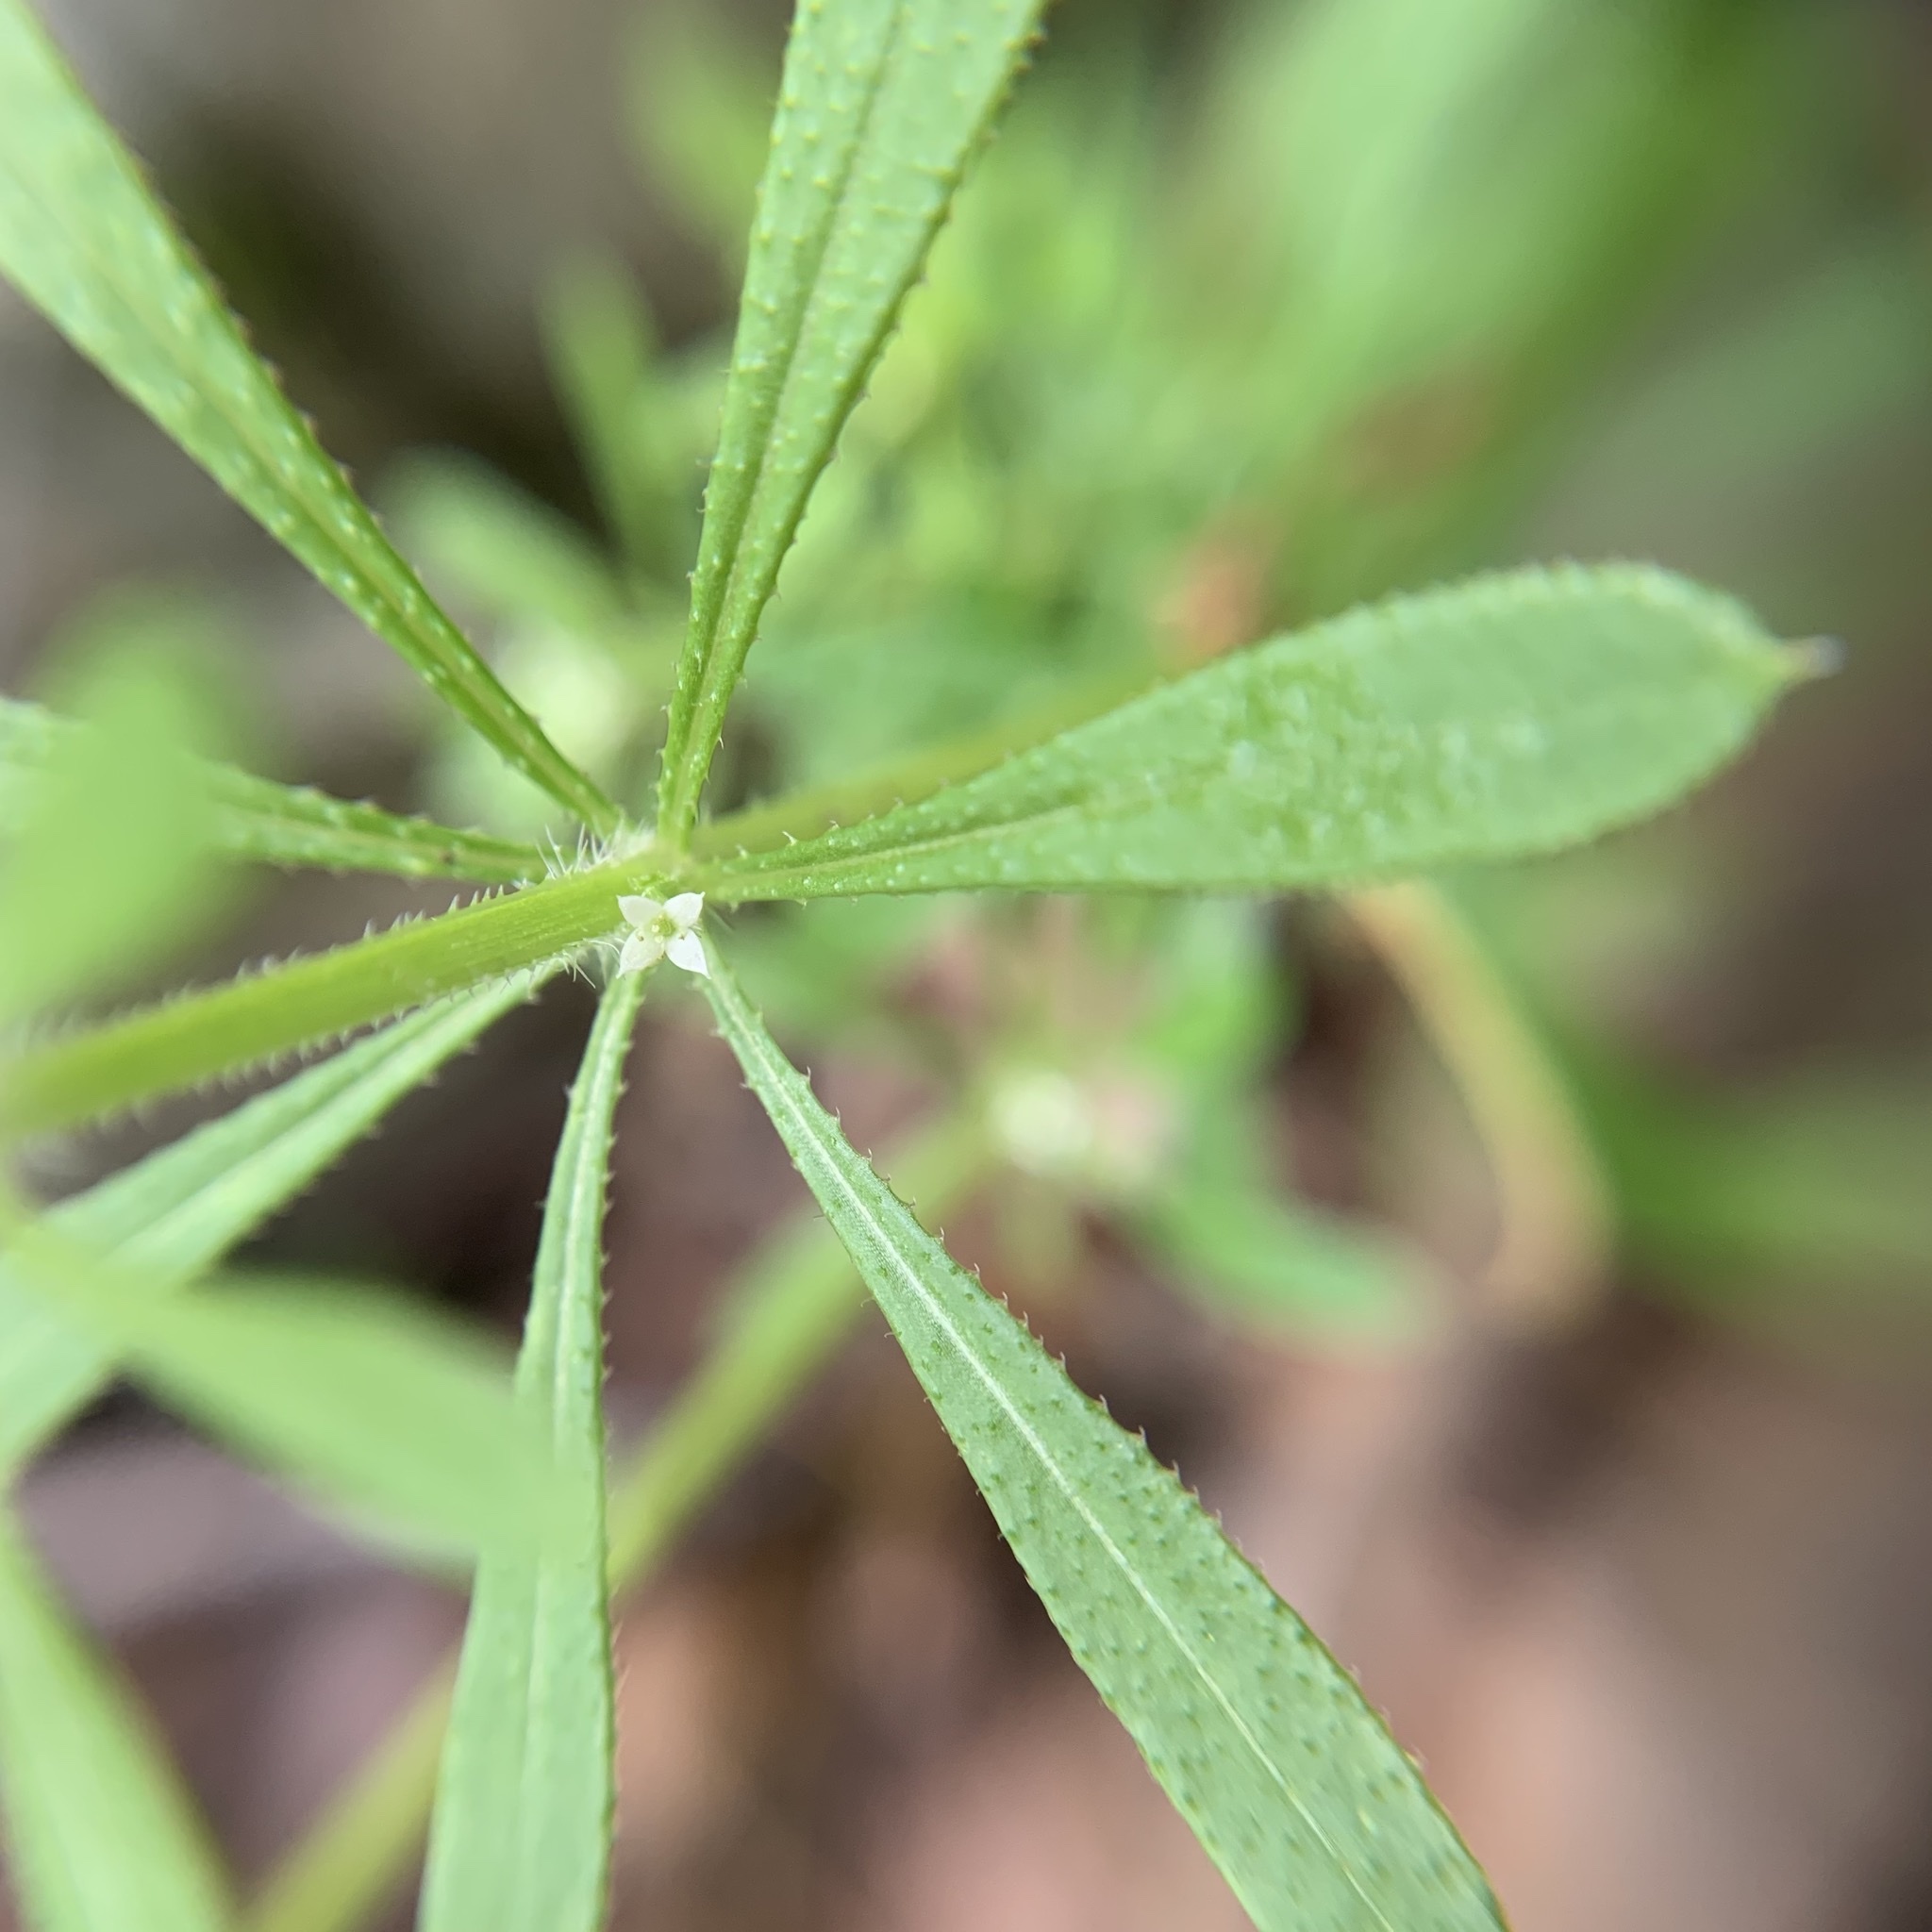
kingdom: Plantae
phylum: Tracheophyta
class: Magnoliopsida
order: Gentianales
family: Rubiaceae
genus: Galium
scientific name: Galium aparine
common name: Cleavers
